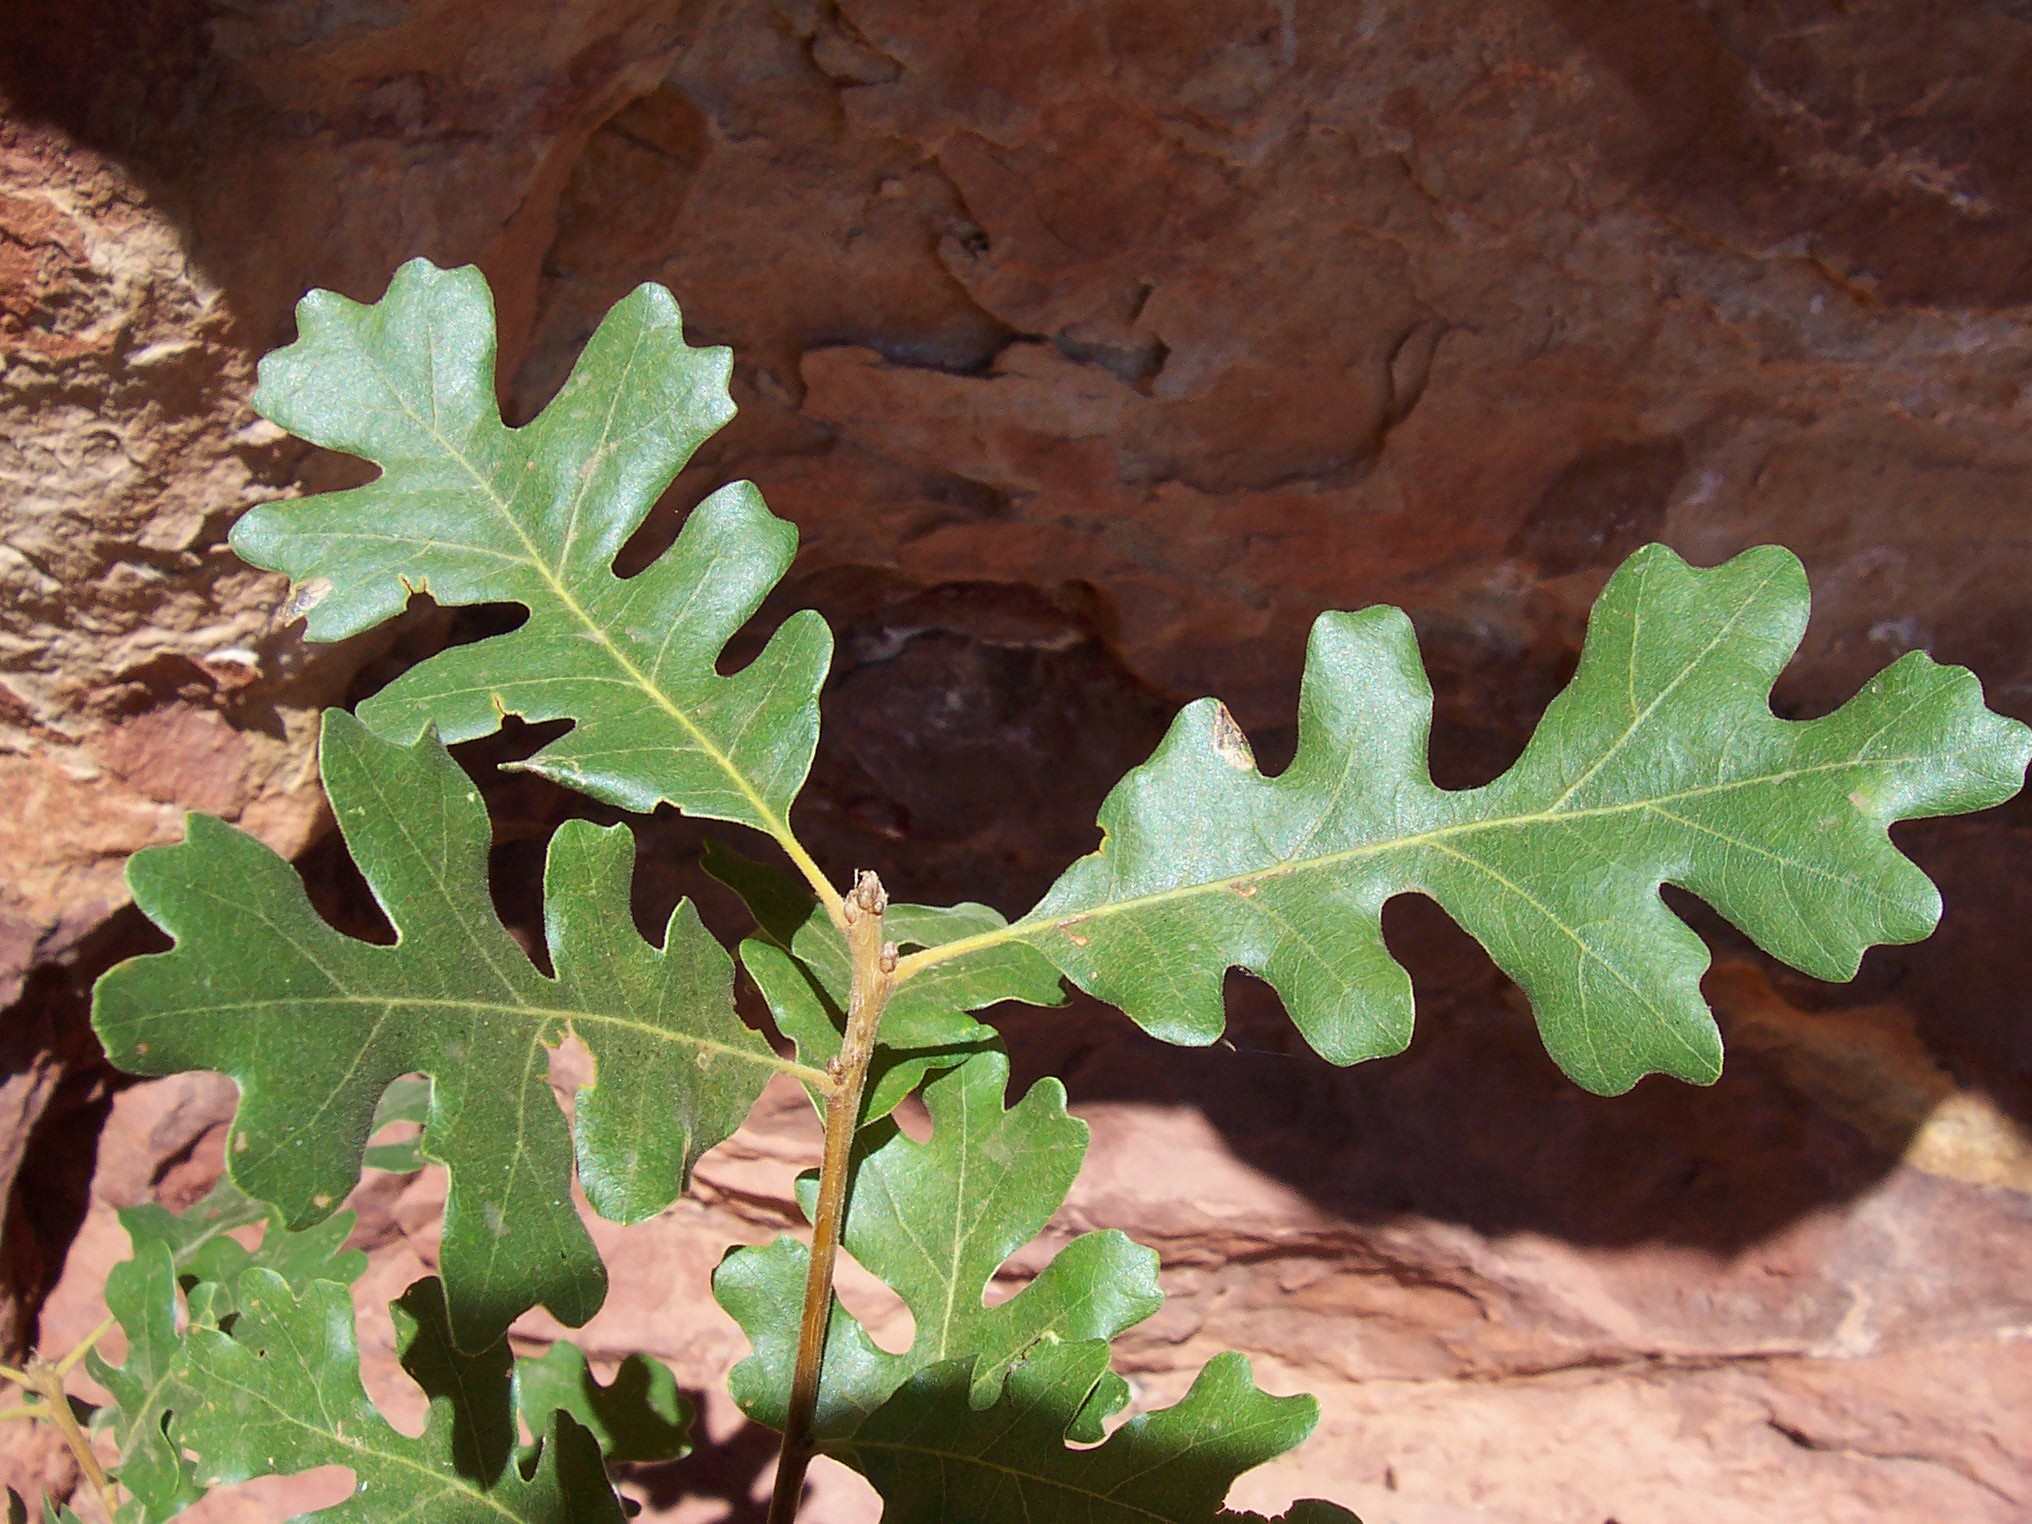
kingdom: Plantae
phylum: Tracheophyta
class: Magnoliopsida
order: Fagales
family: Fagaceae
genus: Quercus
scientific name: Quercus gambelii
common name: Gambel oak
